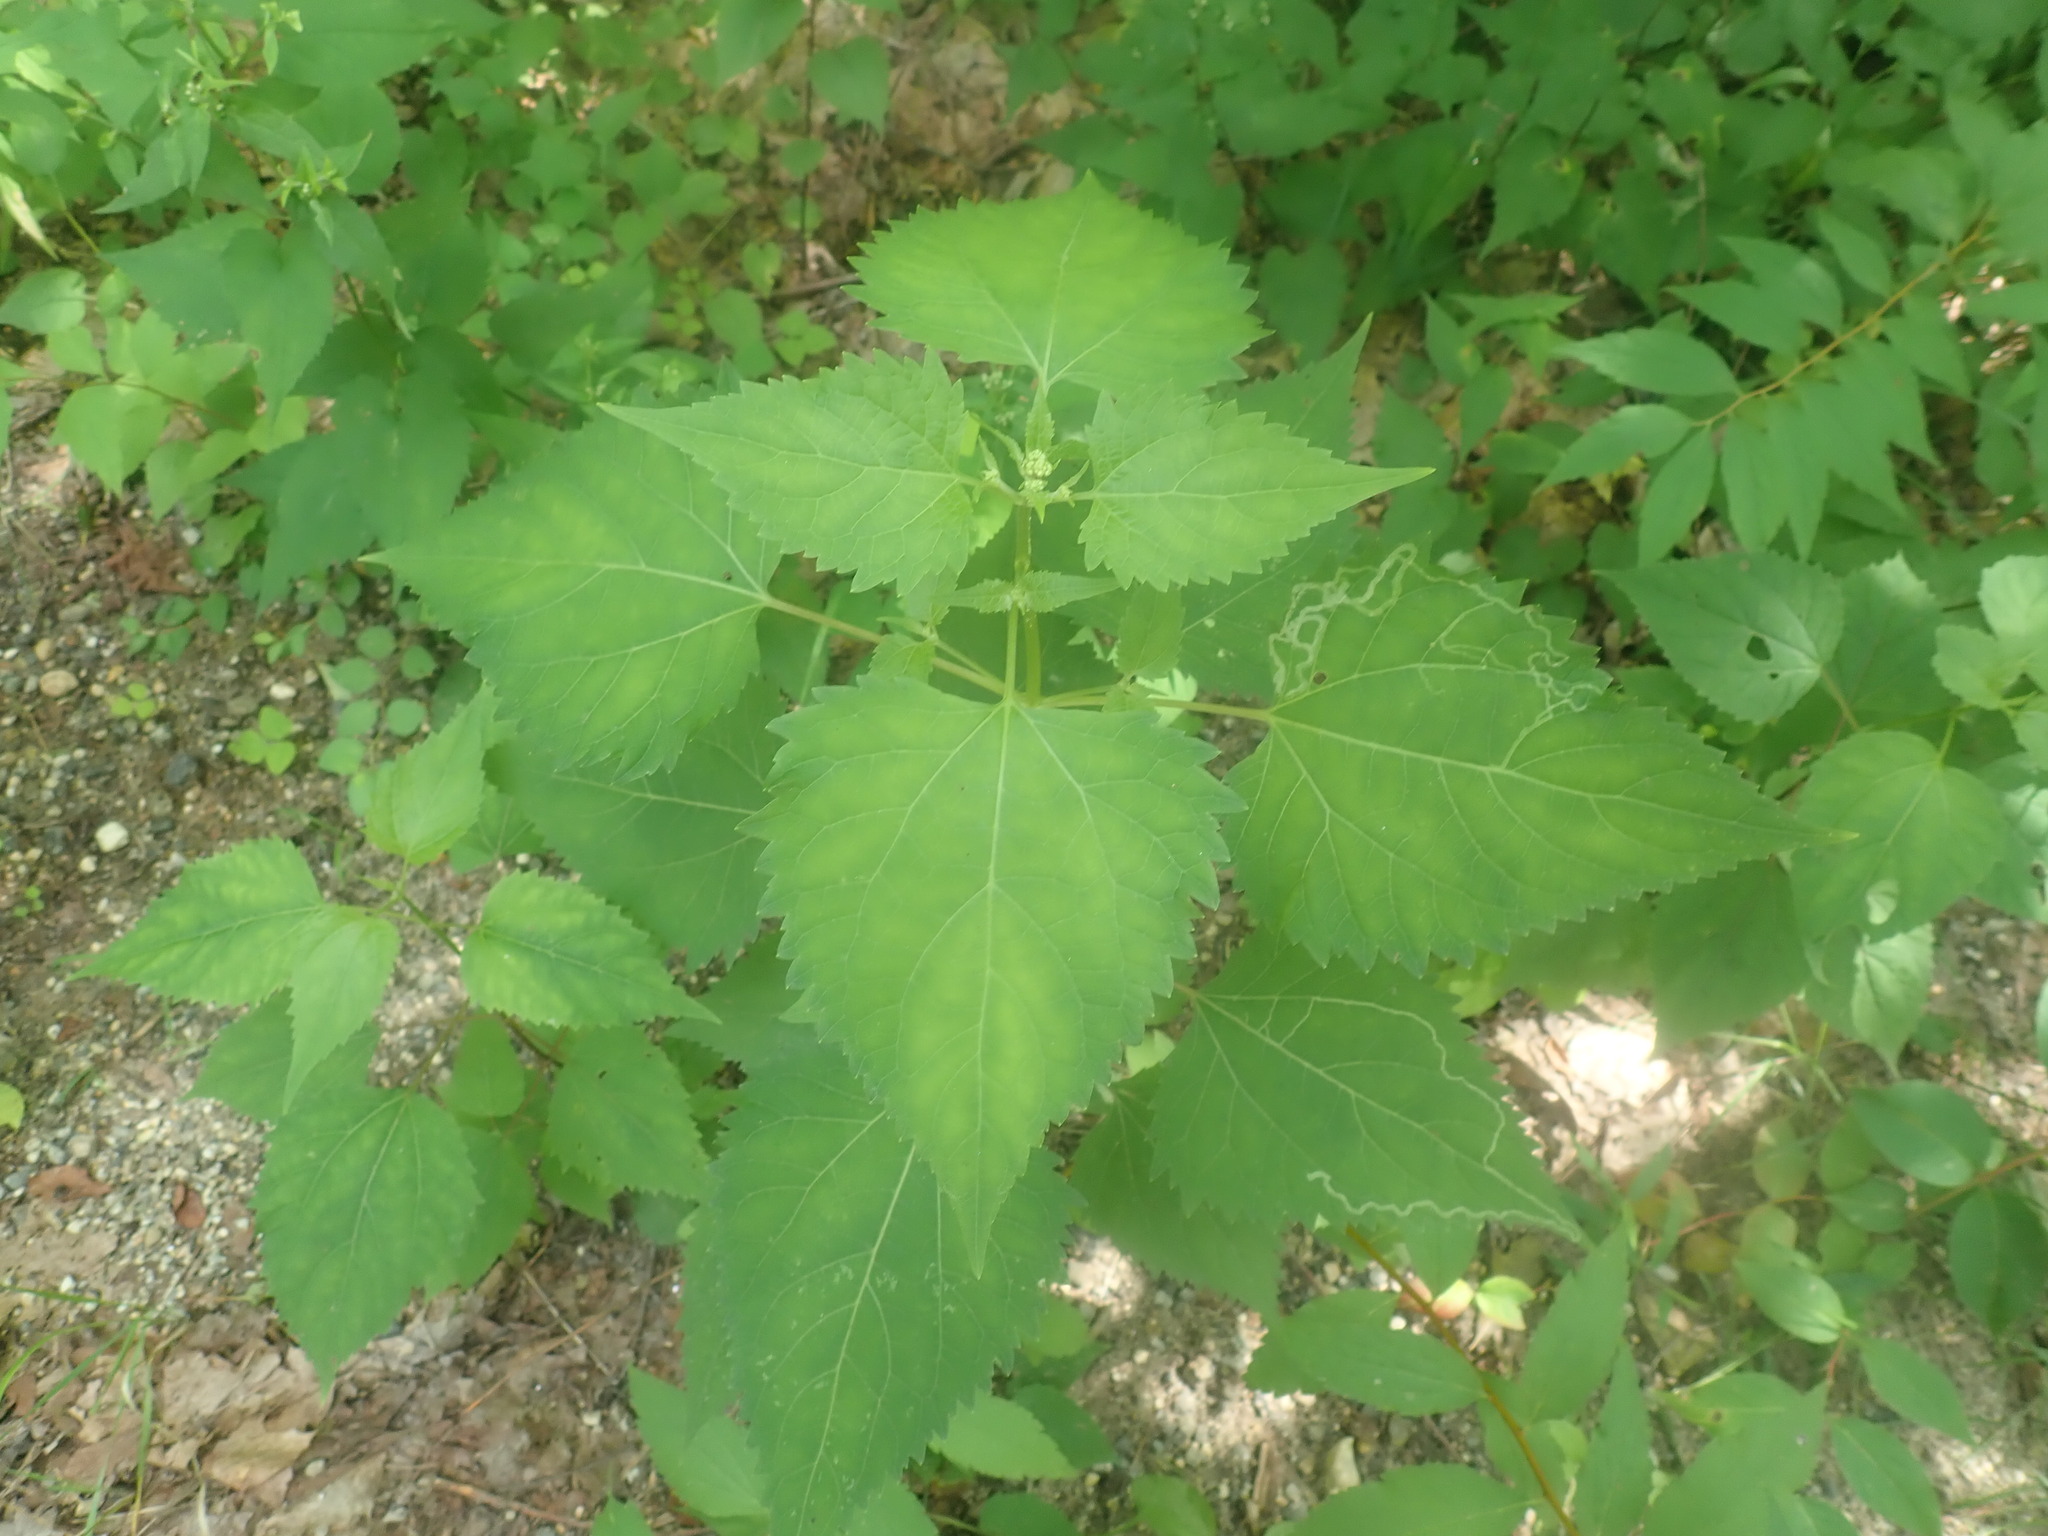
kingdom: Plantae
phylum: Tracheophyta
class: Magnoliopsida
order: Asterales
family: Asteraceae
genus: Ageratina
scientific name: Ageratina altissima
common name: White snakeroot
